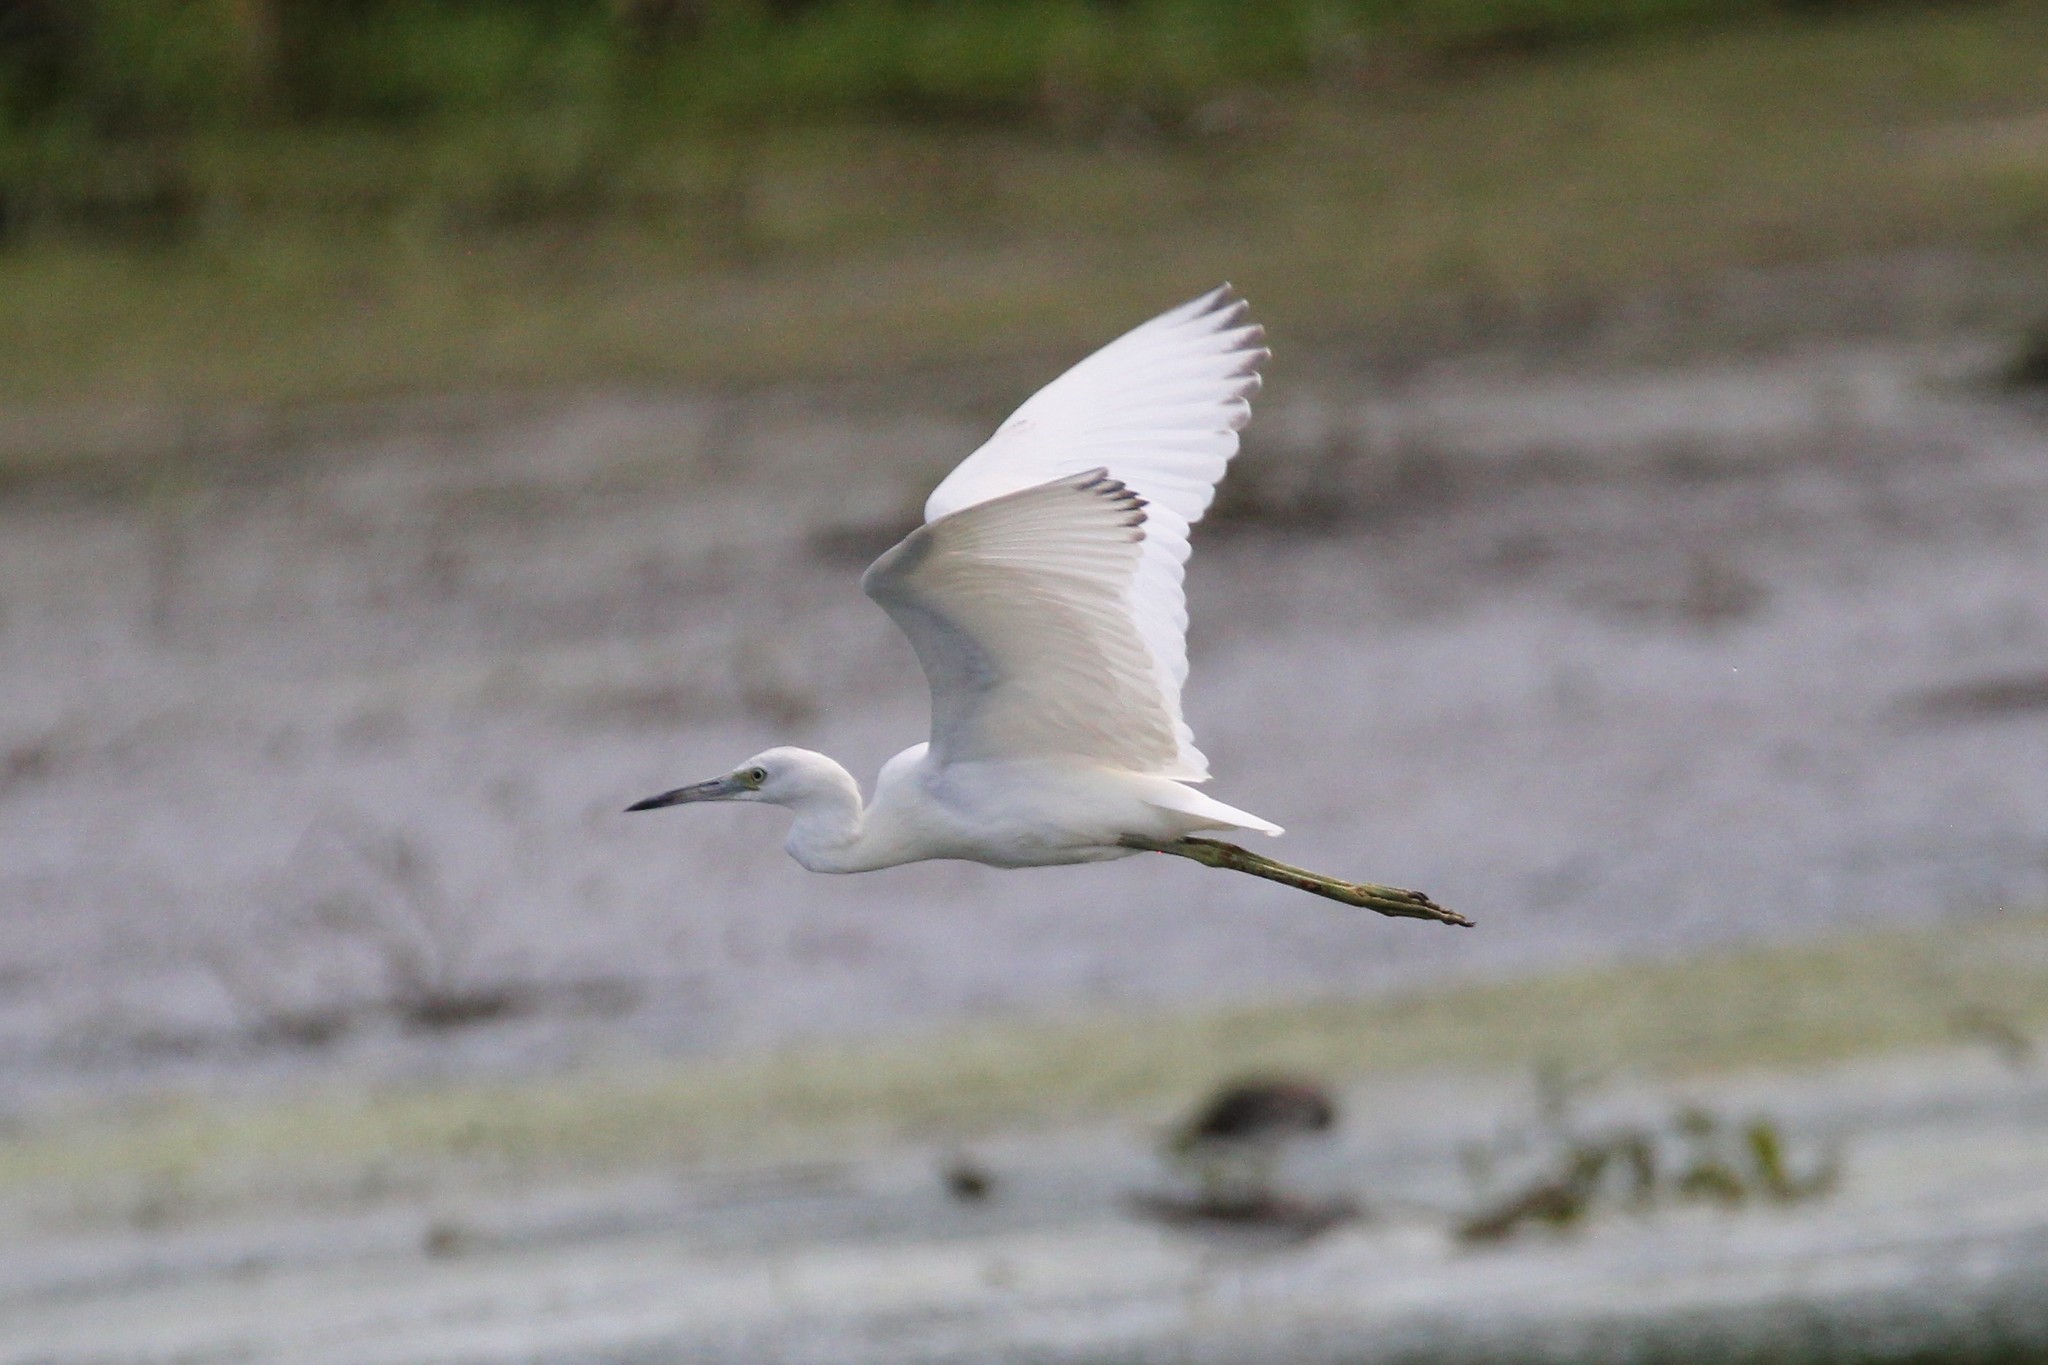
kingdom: Animalia
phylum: Chordata
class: Aves
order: Pelecaniformes
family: Ardeidae
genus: Egretta
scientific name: Egretta caerulea
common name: Little blue heron
